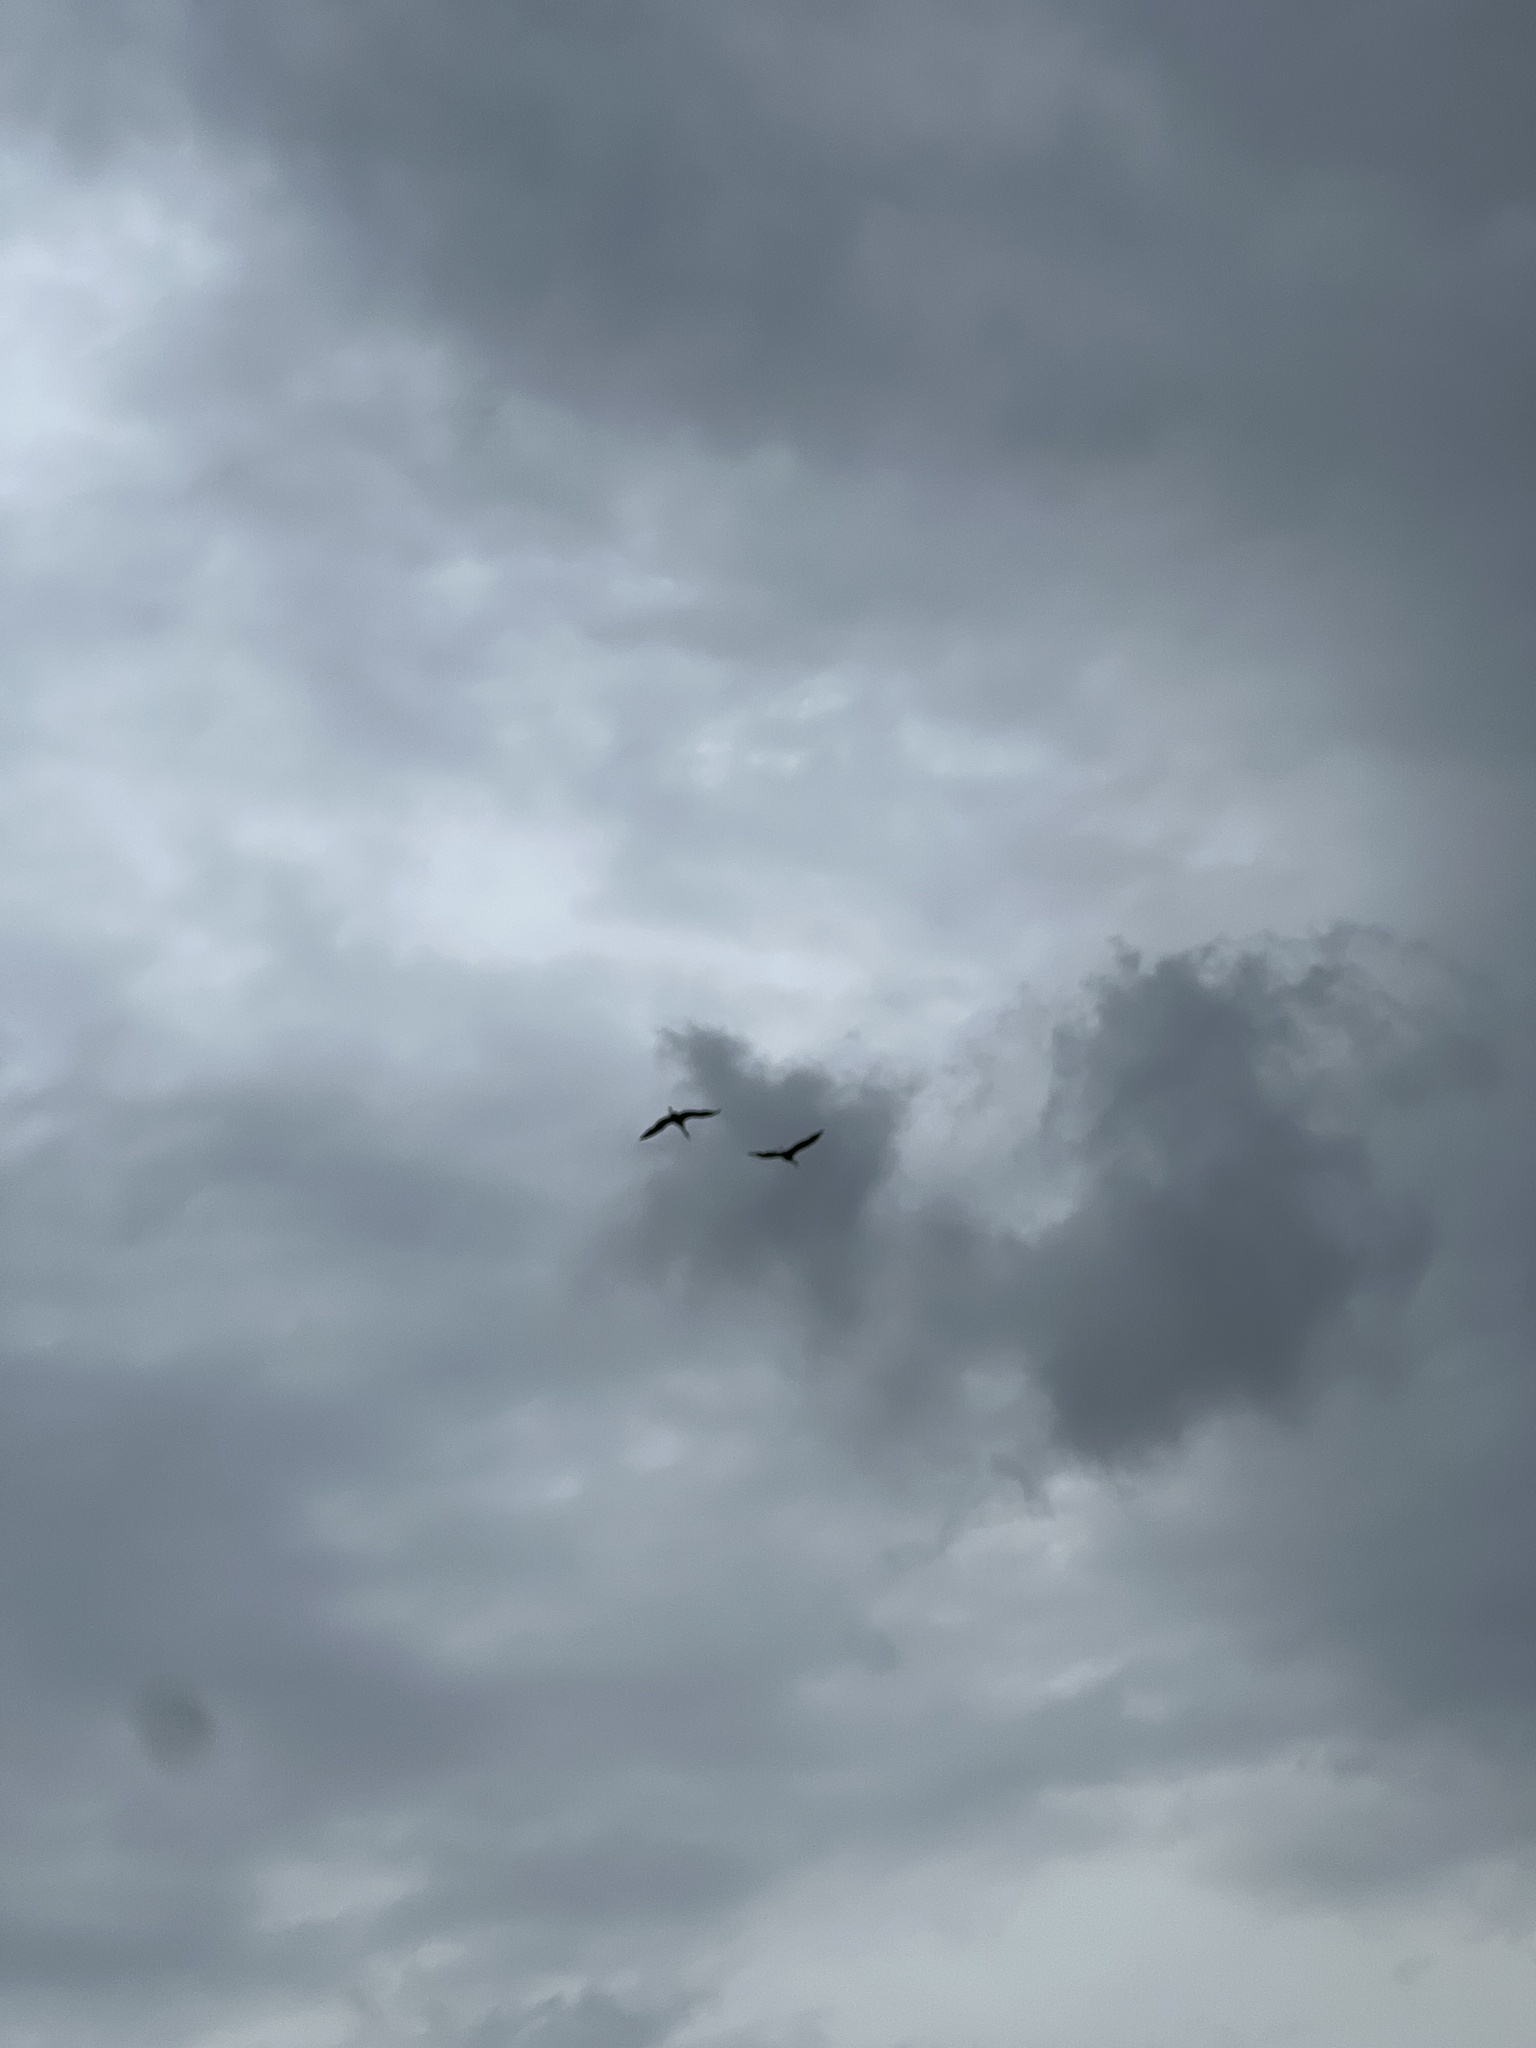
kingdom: Animalia
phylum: Chordata
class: Aves
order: Gruiformes
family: Gruidae
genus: Grus
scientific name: Grus canadensis
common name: Sandhill crane
